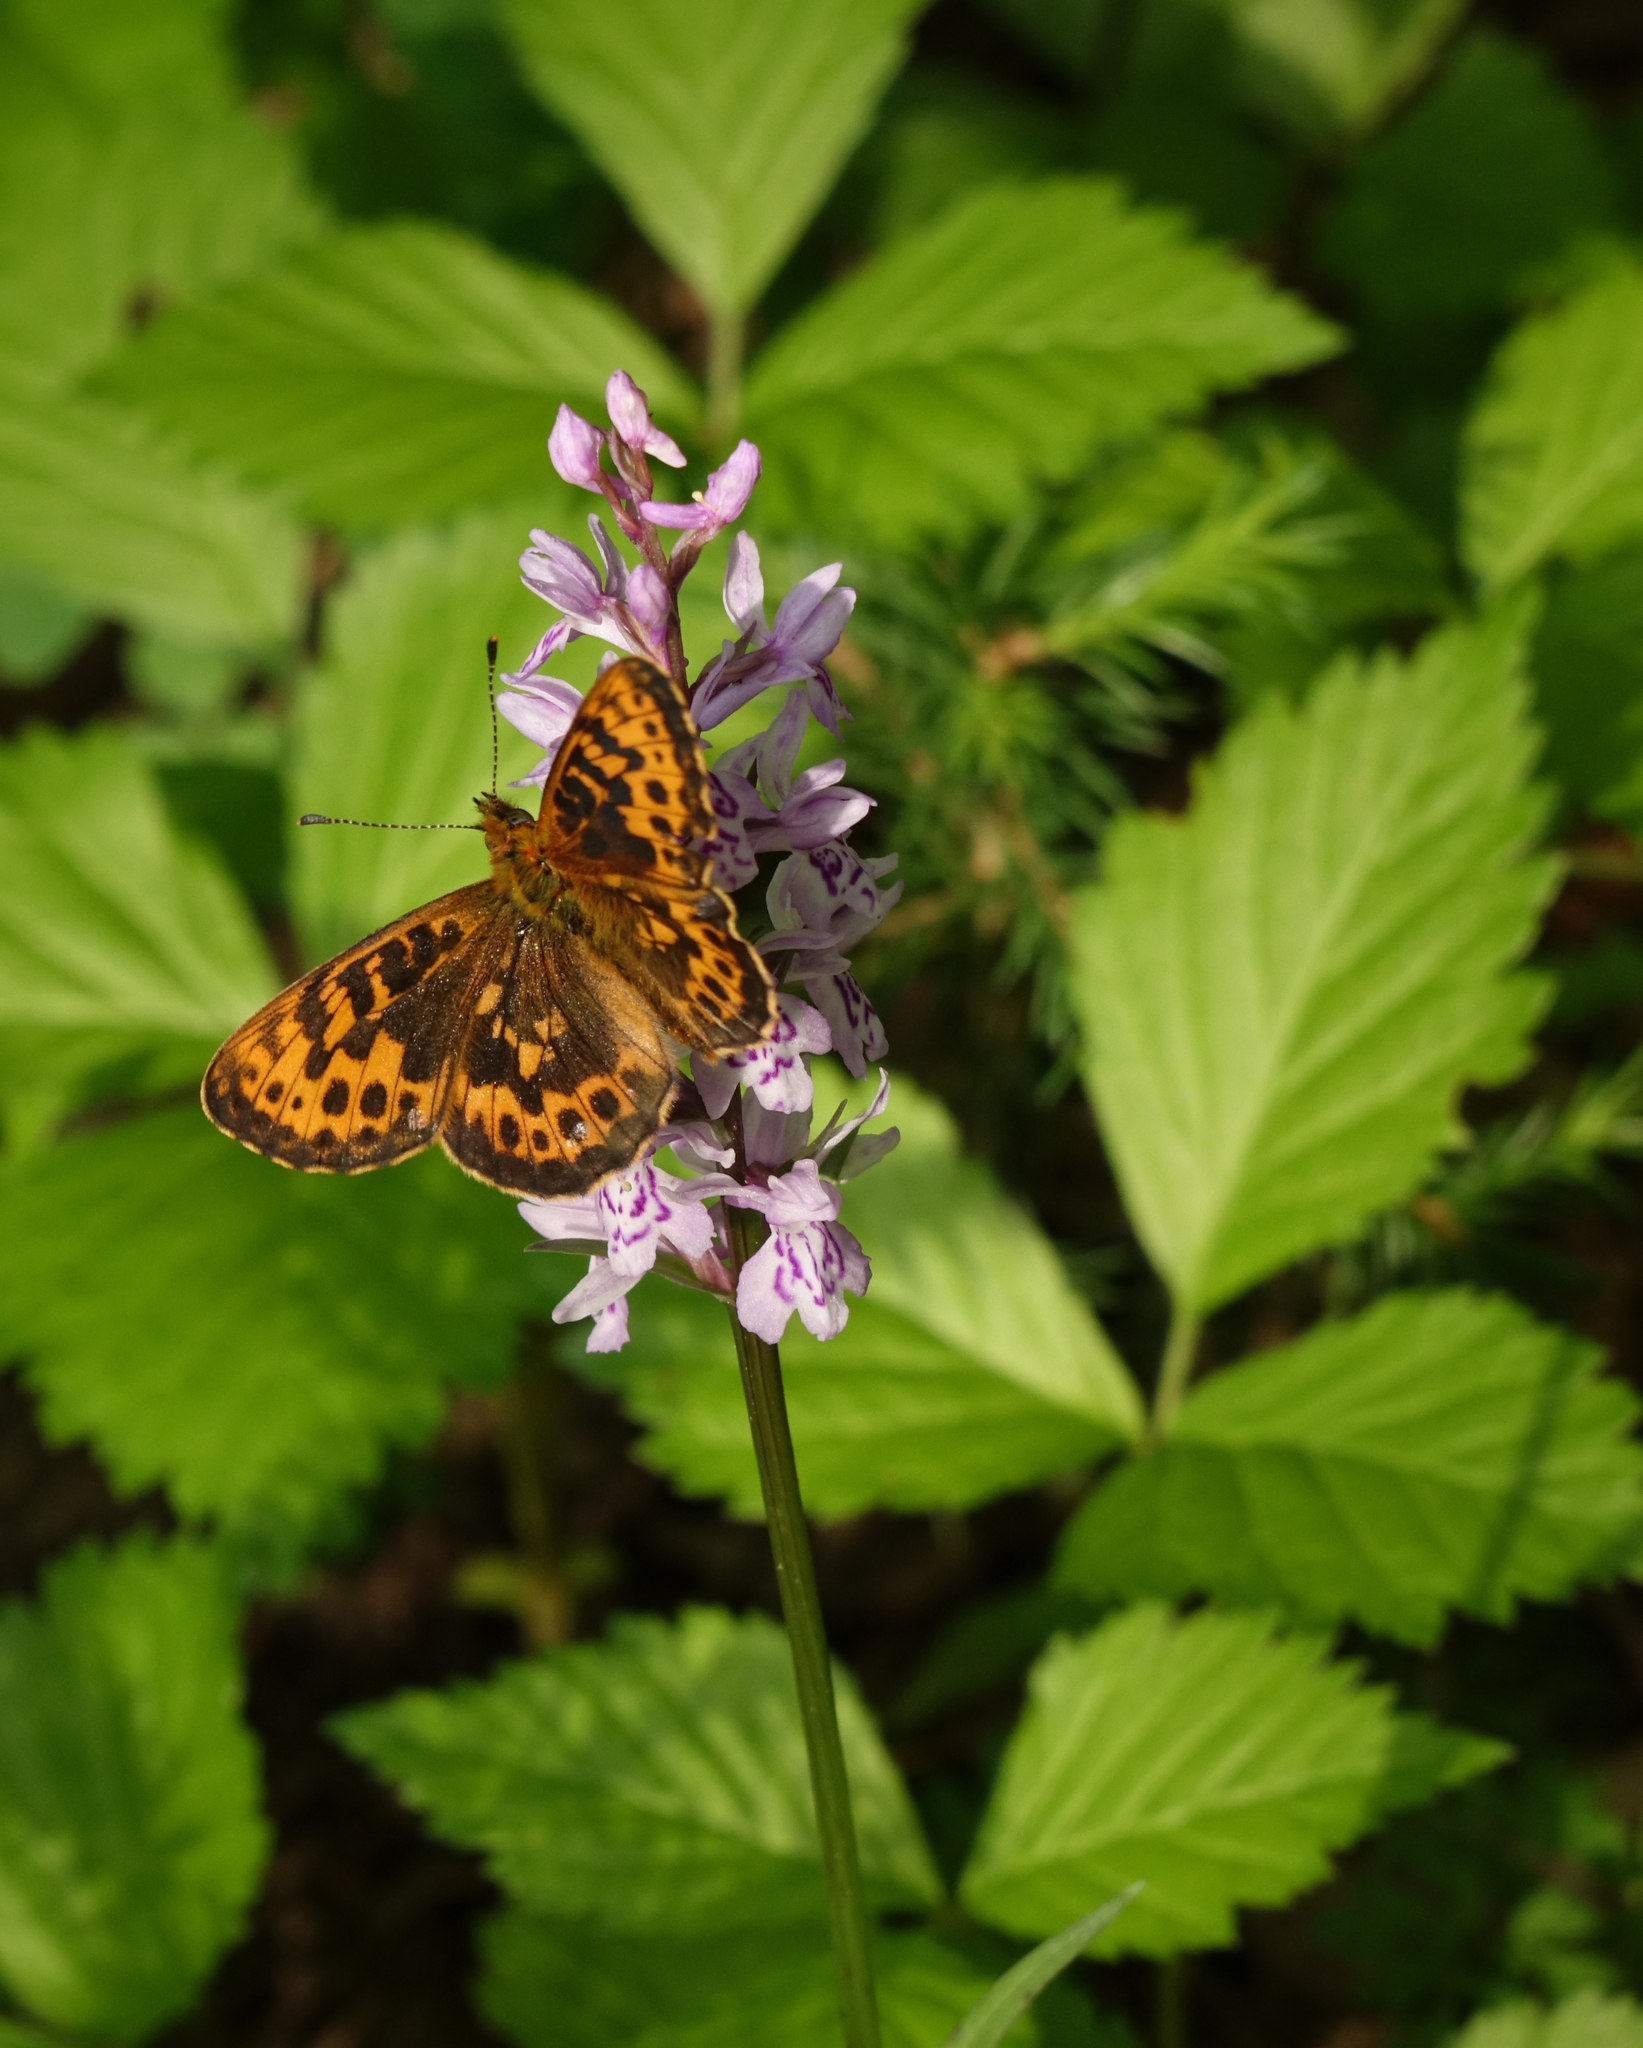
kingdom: Plantae
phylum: Tracheophyta
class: Liliopsida
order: Asparagales
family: Orchidaceae
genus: Dactylorhiza
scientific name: Dactylorhiza maculata
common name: Heath spotted-orchid
